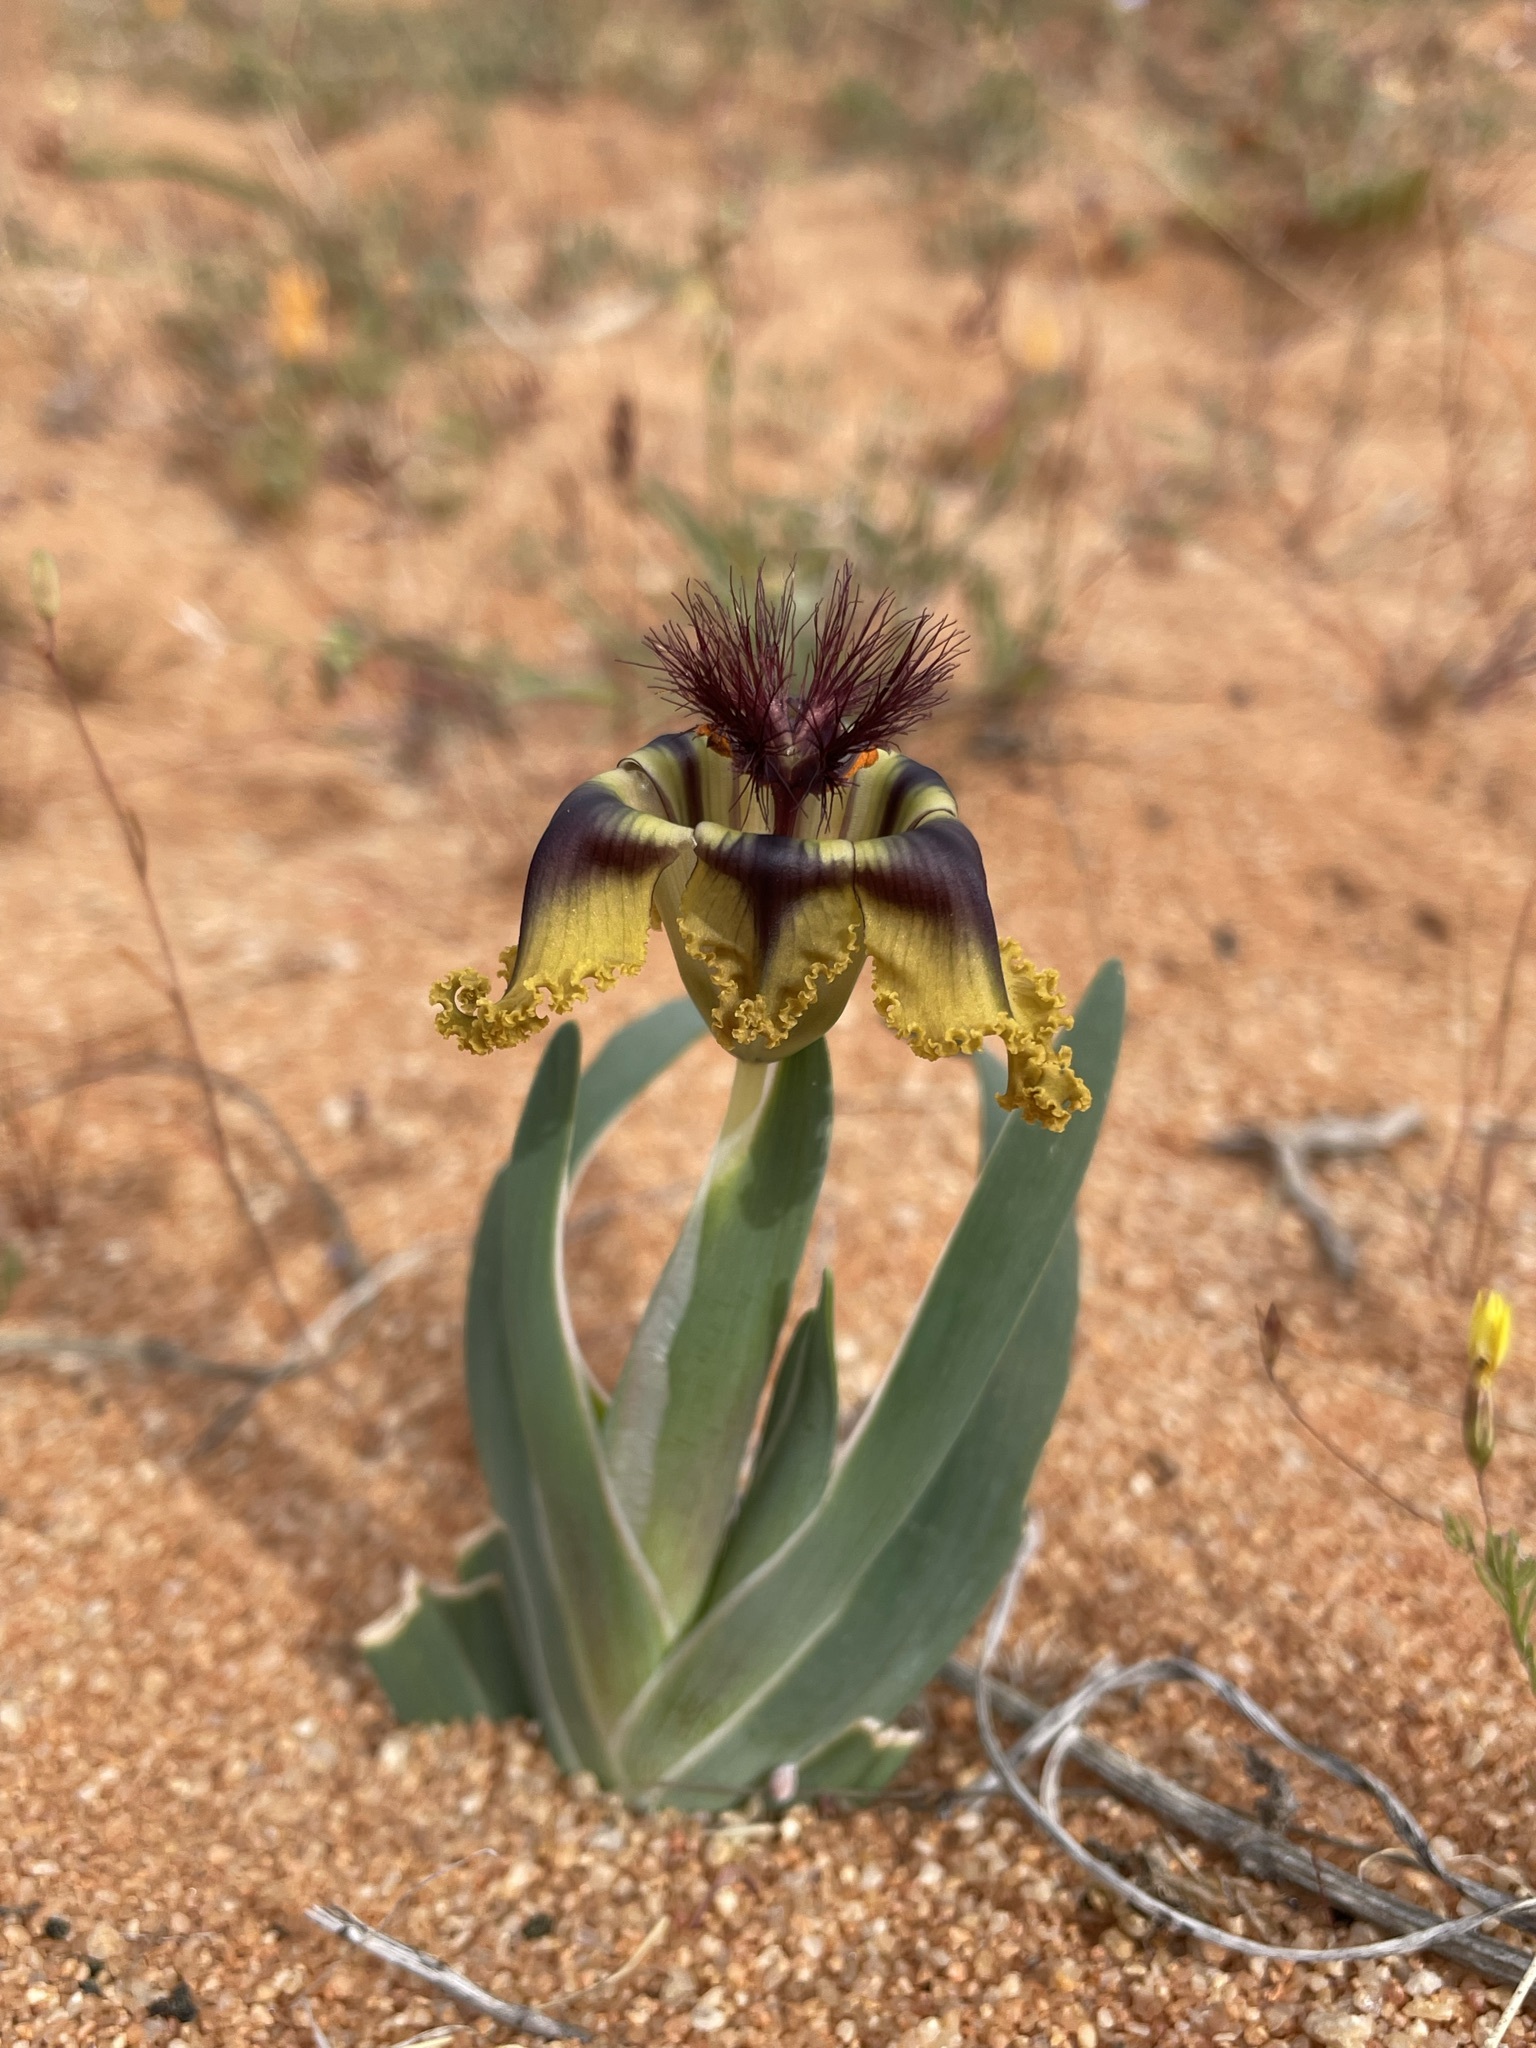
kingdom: Plantae
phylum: Tracheophyta
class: Liliopsida
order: Asparagales
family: Iridaceae
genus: Ferraria
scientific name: Ferraria variabilis
